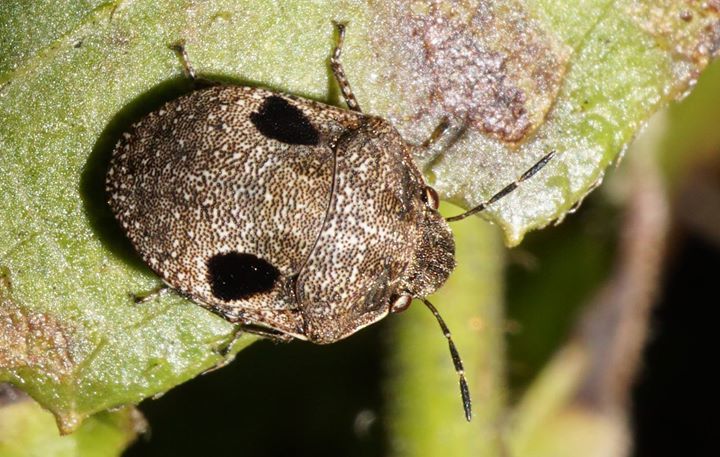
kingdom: Animalia
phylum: Arthropoda
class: Insecta
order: Hemiptera
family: Scutelleridae
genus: Sphyrocoris
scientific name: Sphyrocoris obliquus
